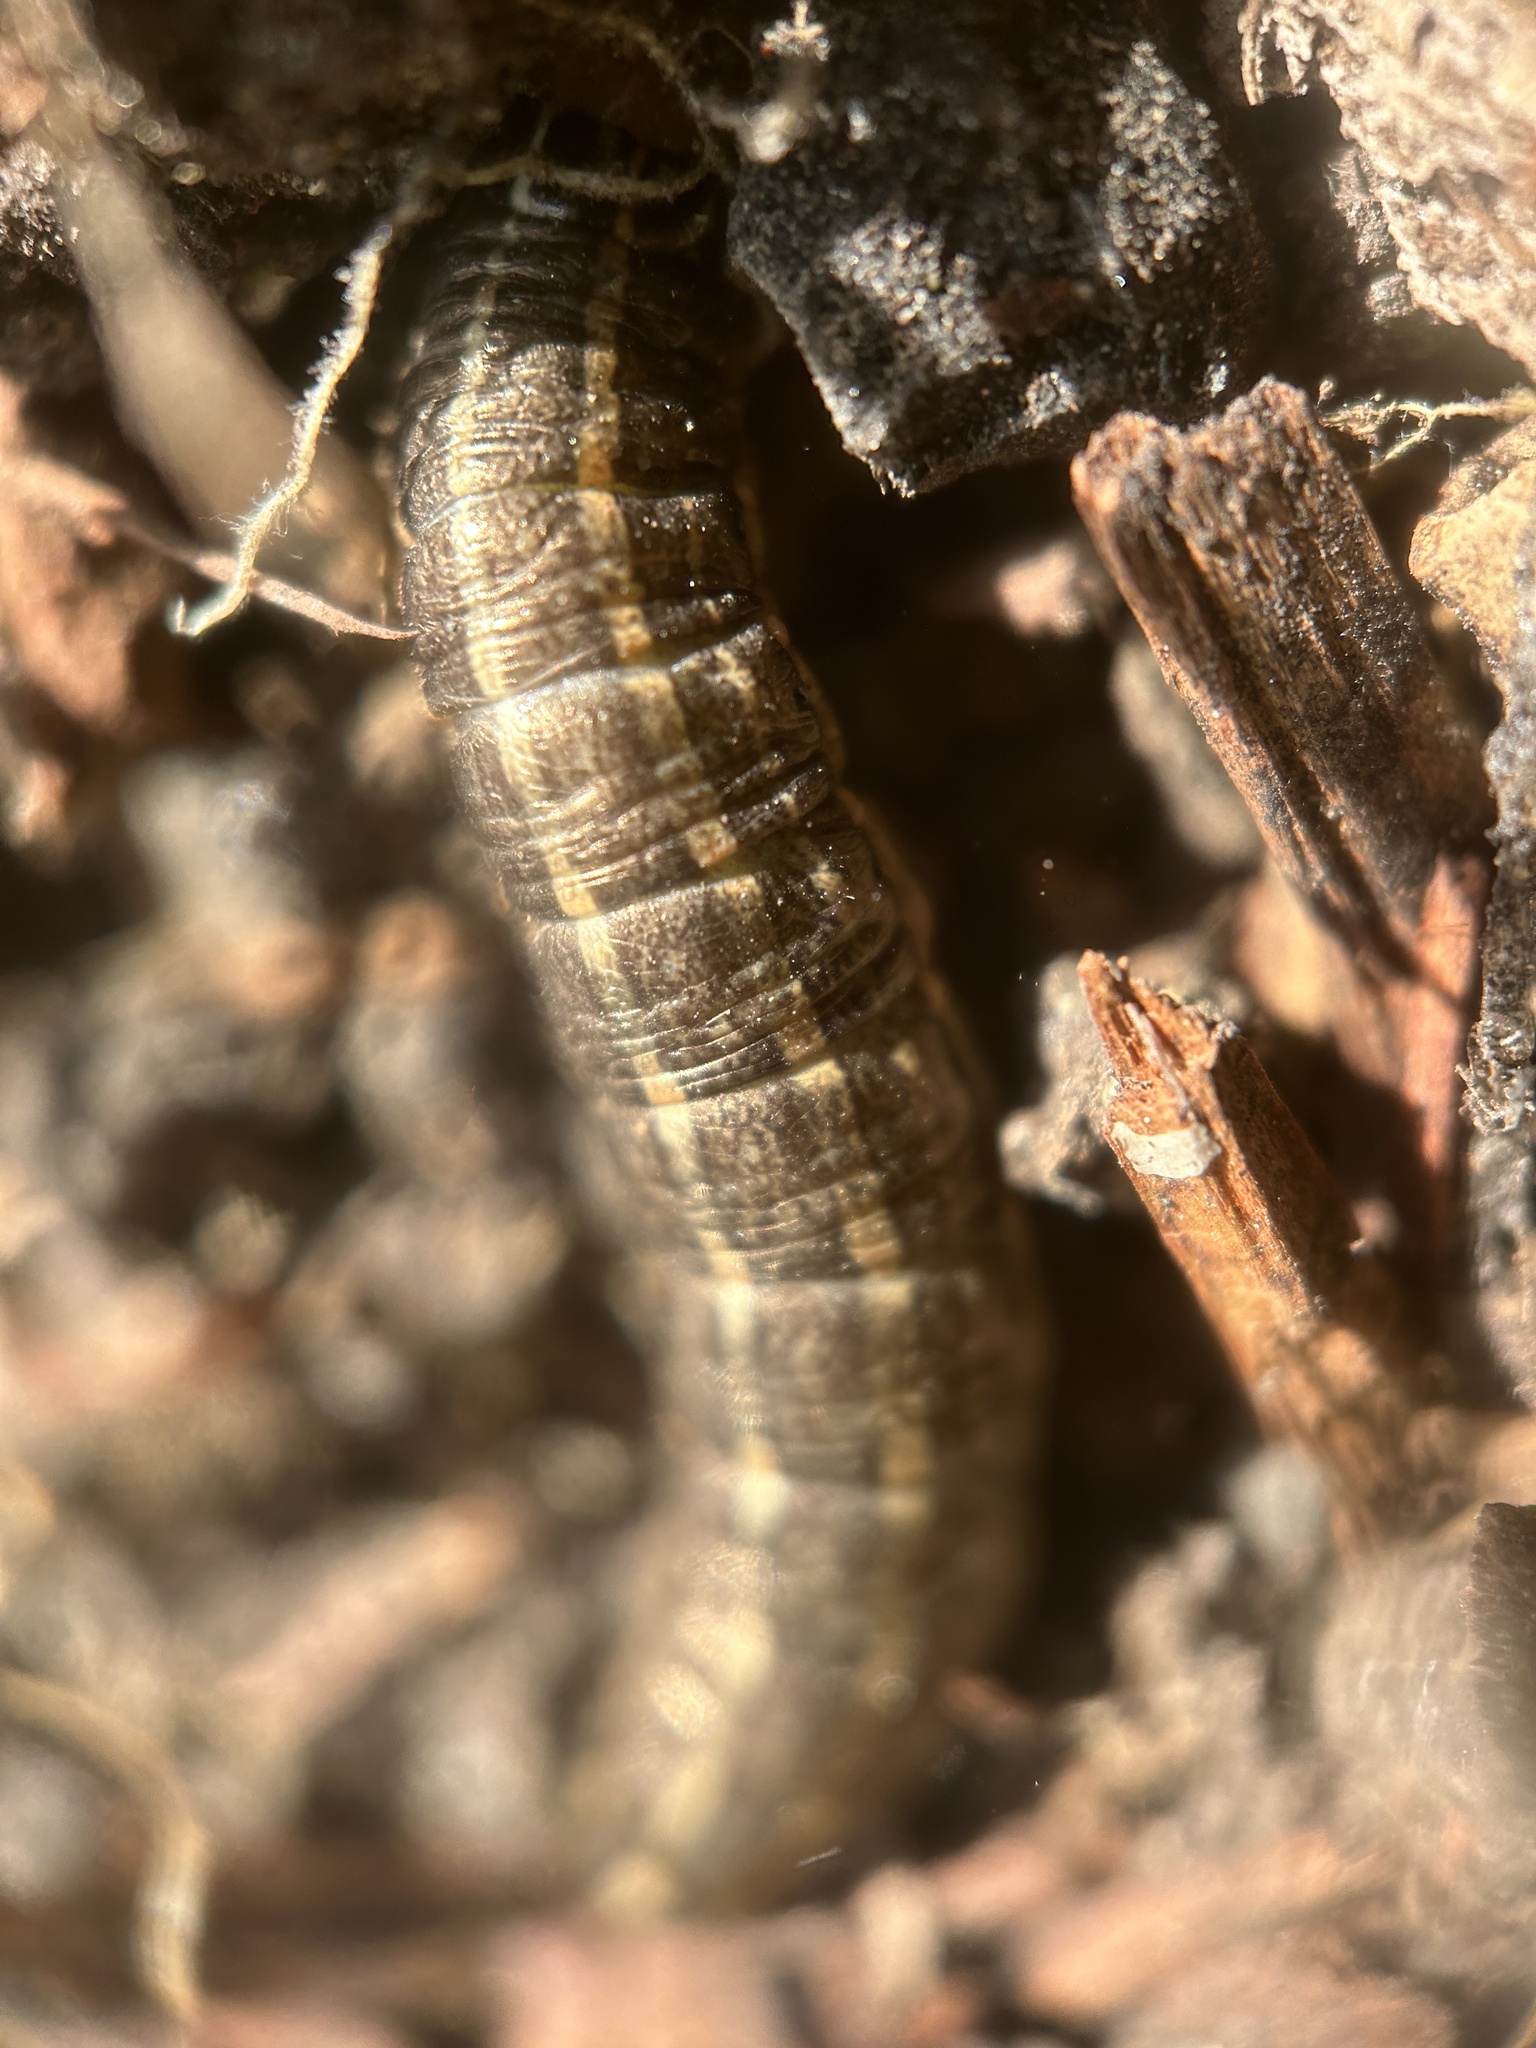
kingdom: Animalia
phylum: Arthropoda
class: Insecta
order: Lepidoptera
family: Noctuidae
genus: Nephelodes
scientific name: Nephelodes minians
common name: Bronzed cutworm
